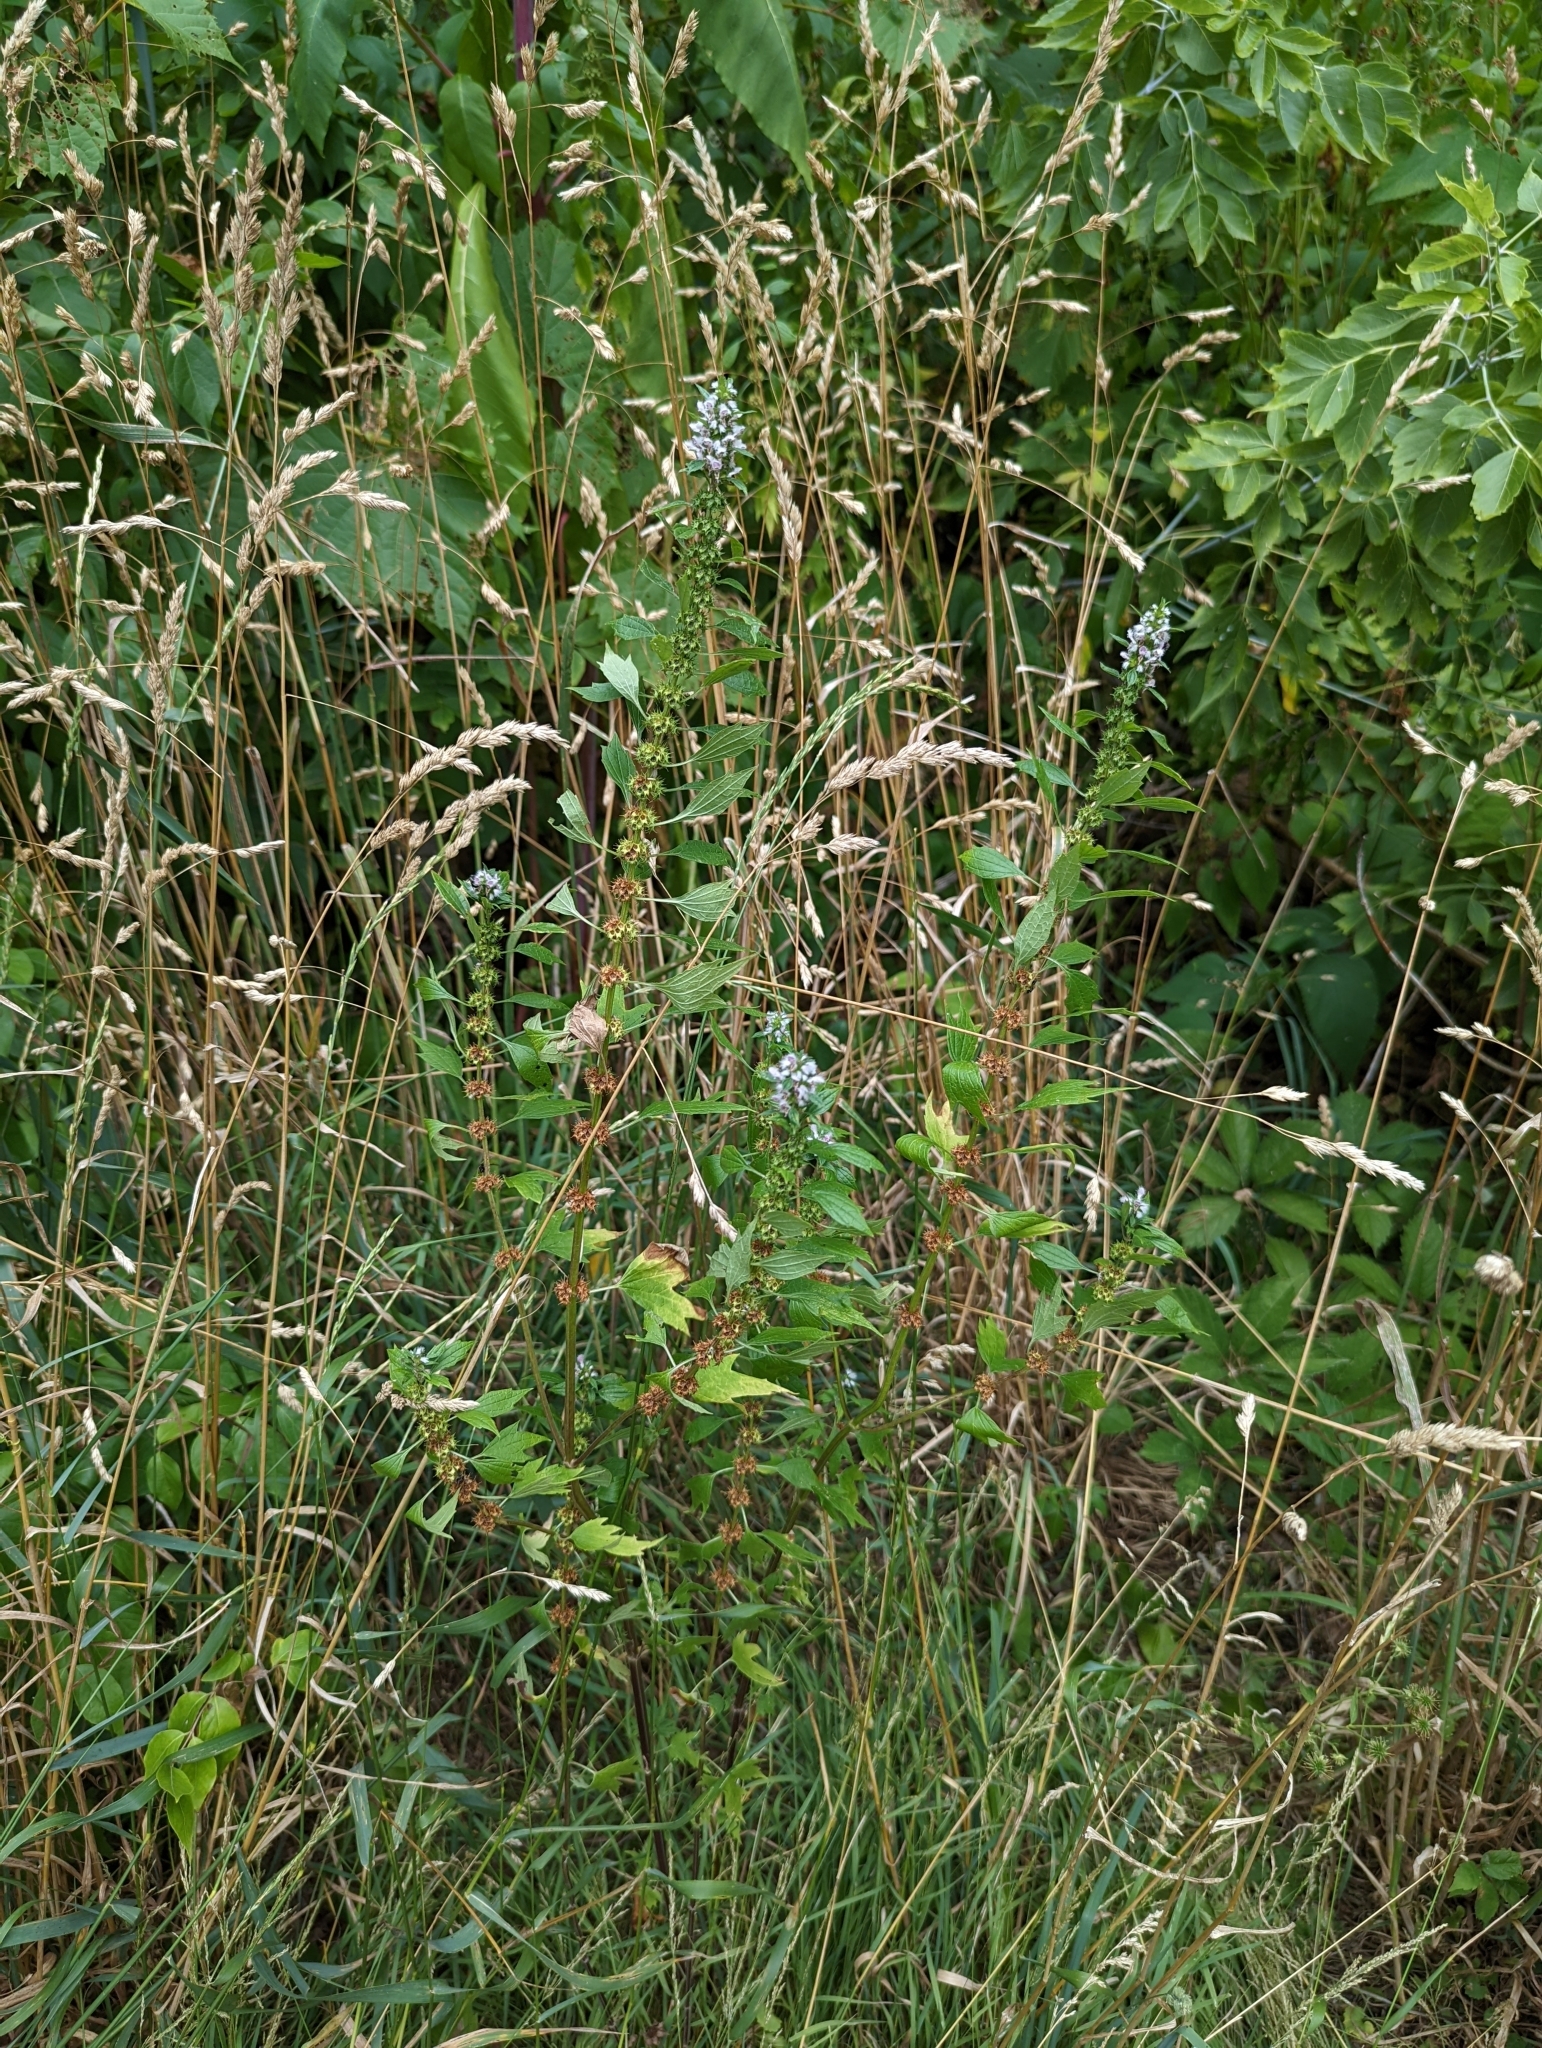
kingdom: Plantae
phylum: Tracheophyta
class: Magnoliopsida
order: Lamiales
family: Lamiaceae
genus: Leonurus
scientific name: Leonurus cardiaca
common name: Motherwort
